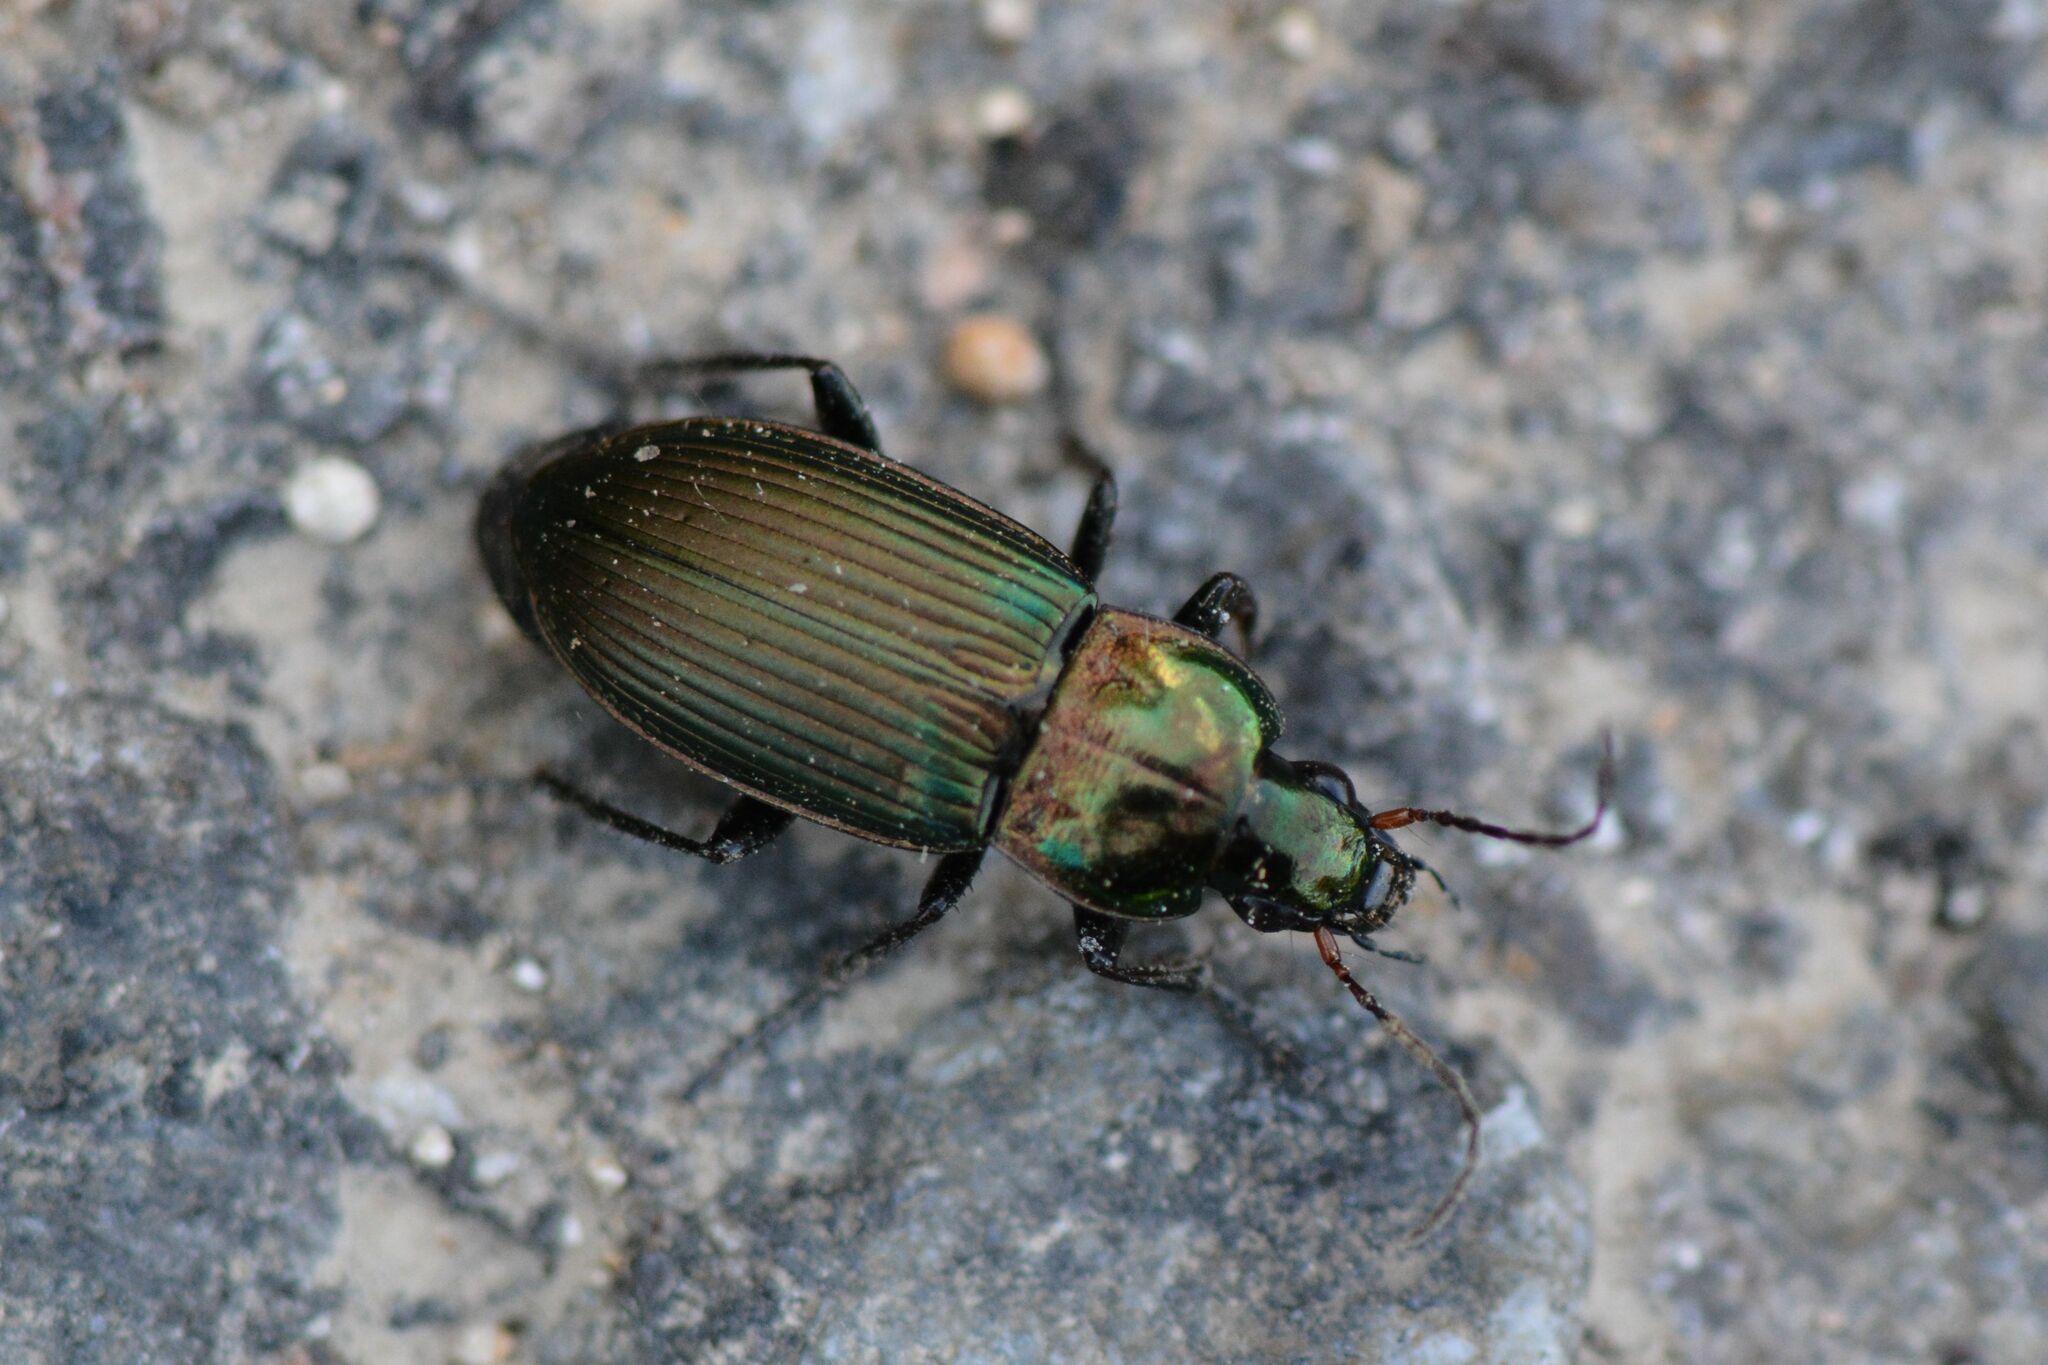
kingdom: Animalia
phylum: Arthropoda
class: Insecta
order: Coleoptera
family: Carabidae
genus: Poecilus
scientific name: Poecilus cupreus
